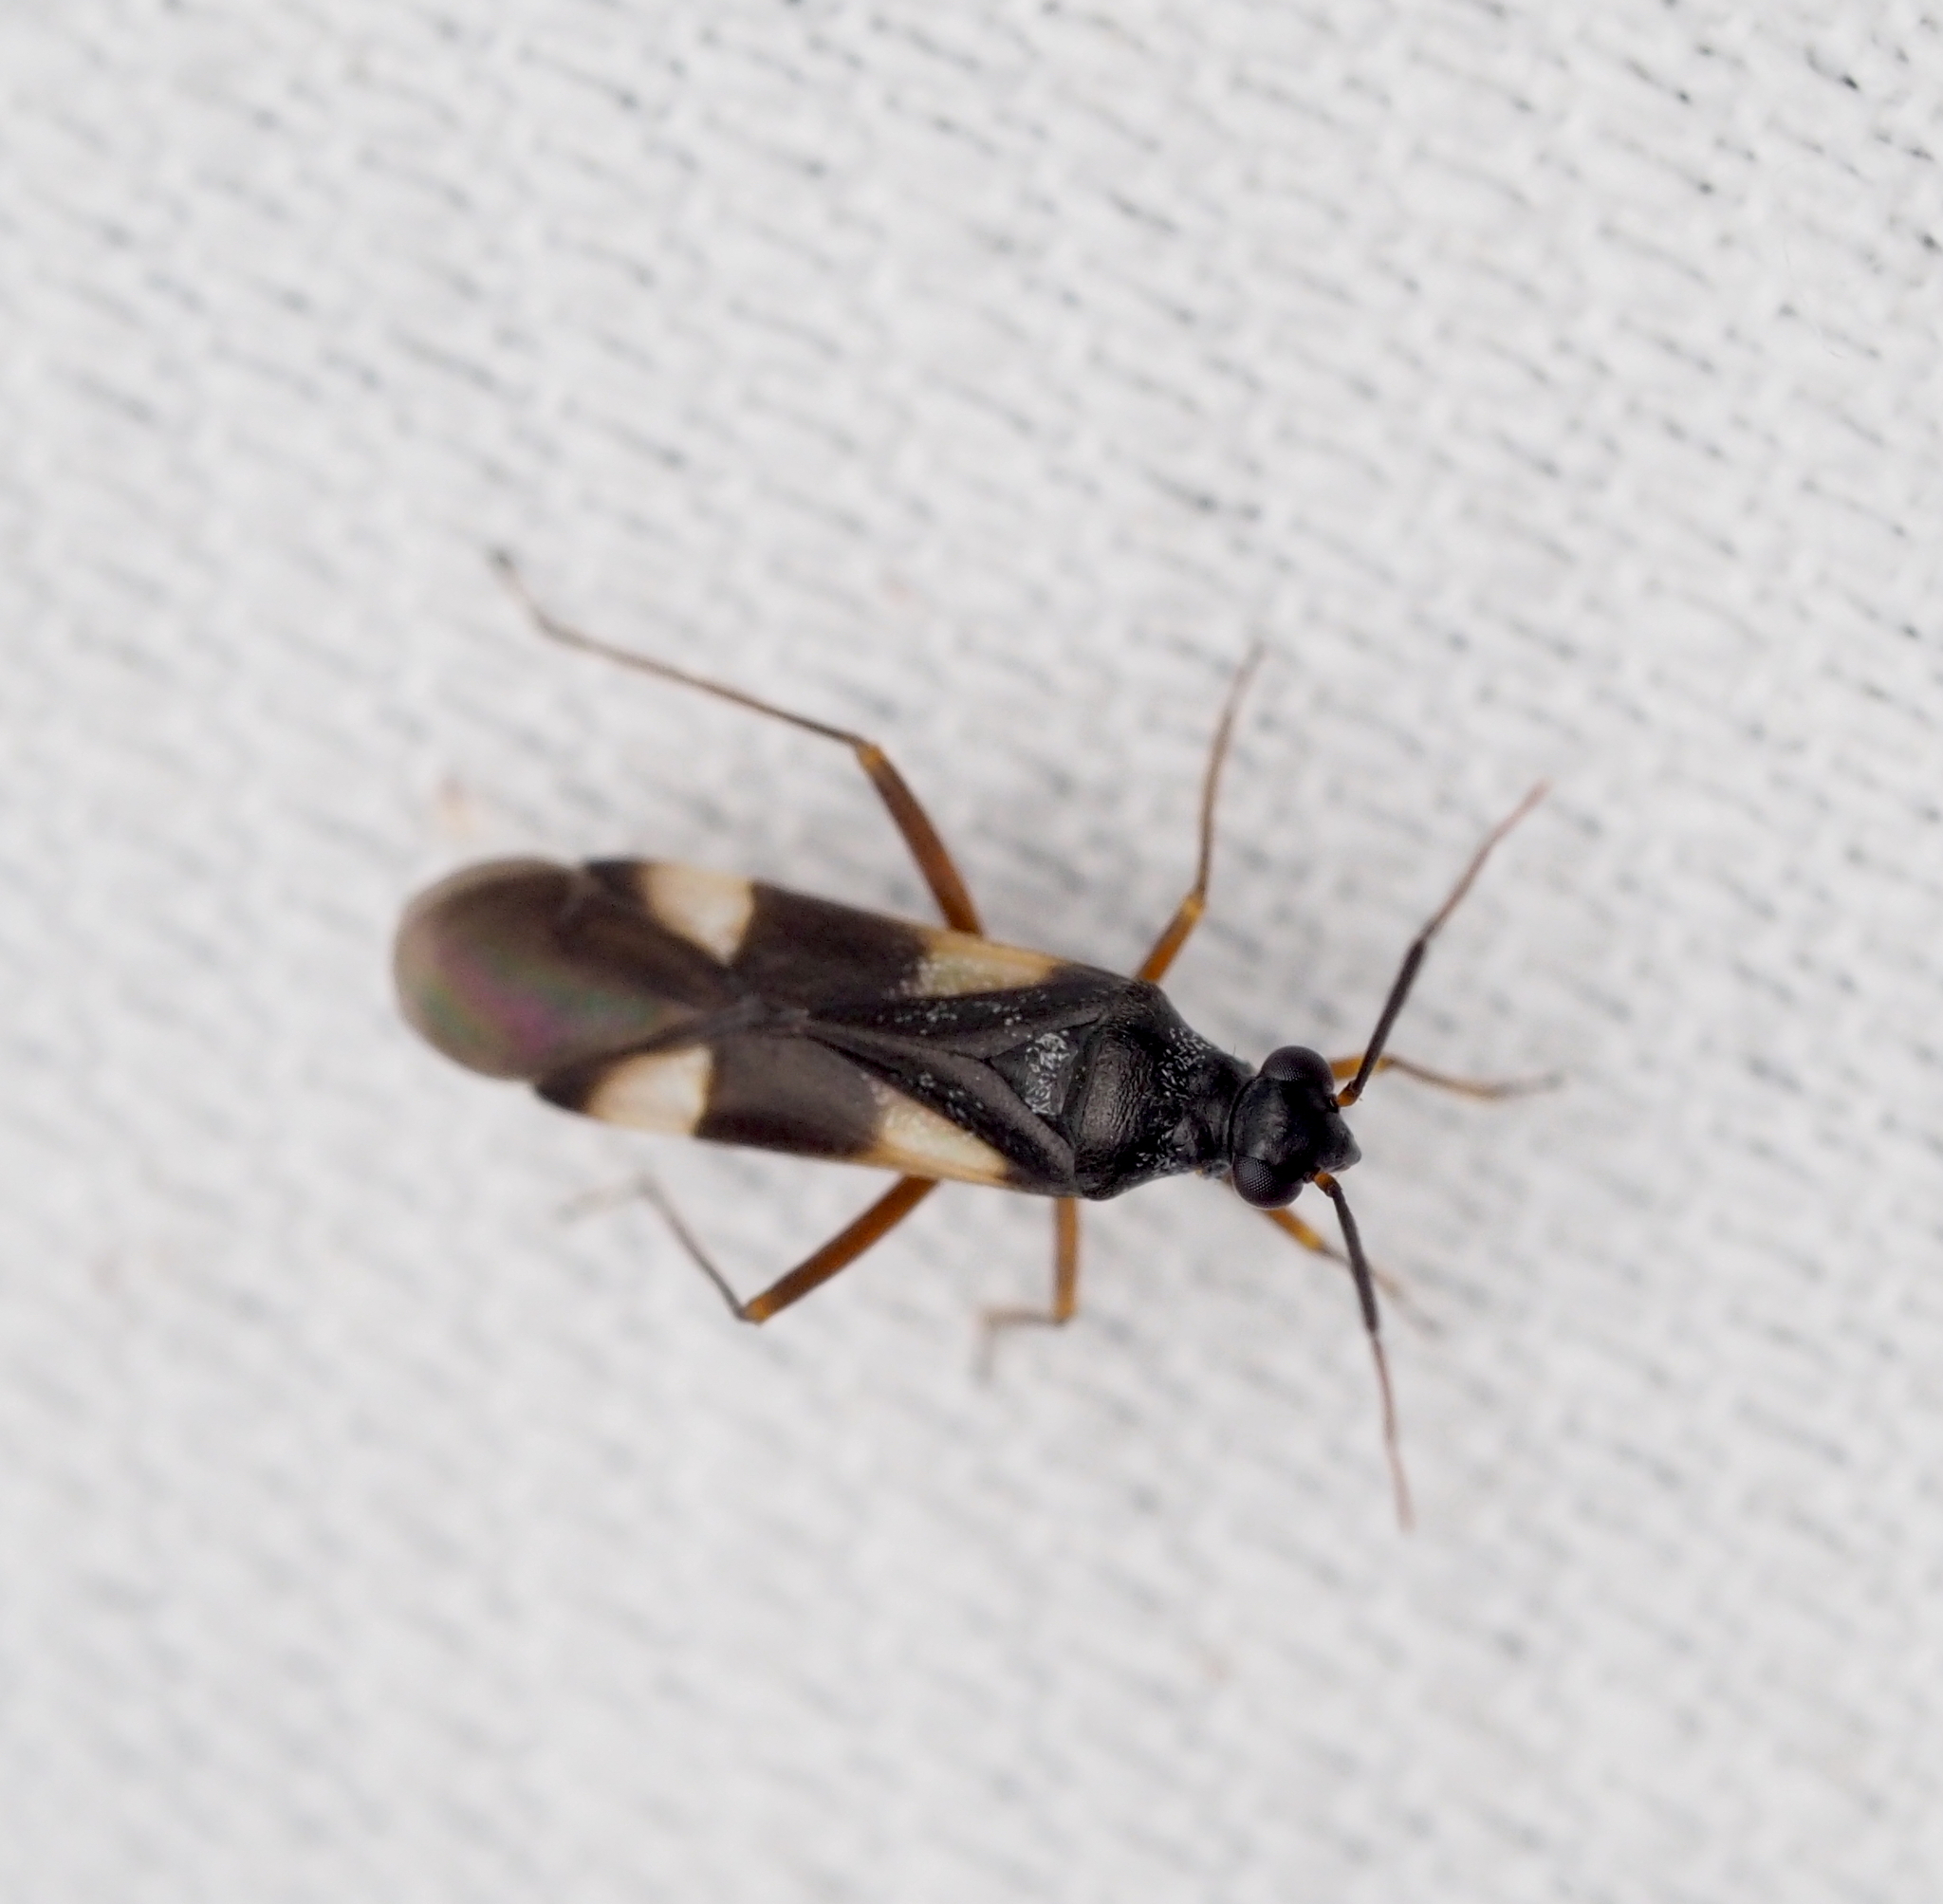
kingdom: Animalia
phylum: Arthropoda
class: Insecta
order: Hemiptera
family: Miridae
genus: Dryophilocoris
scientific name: Dryophilocoris flavoquadrimaculatus
